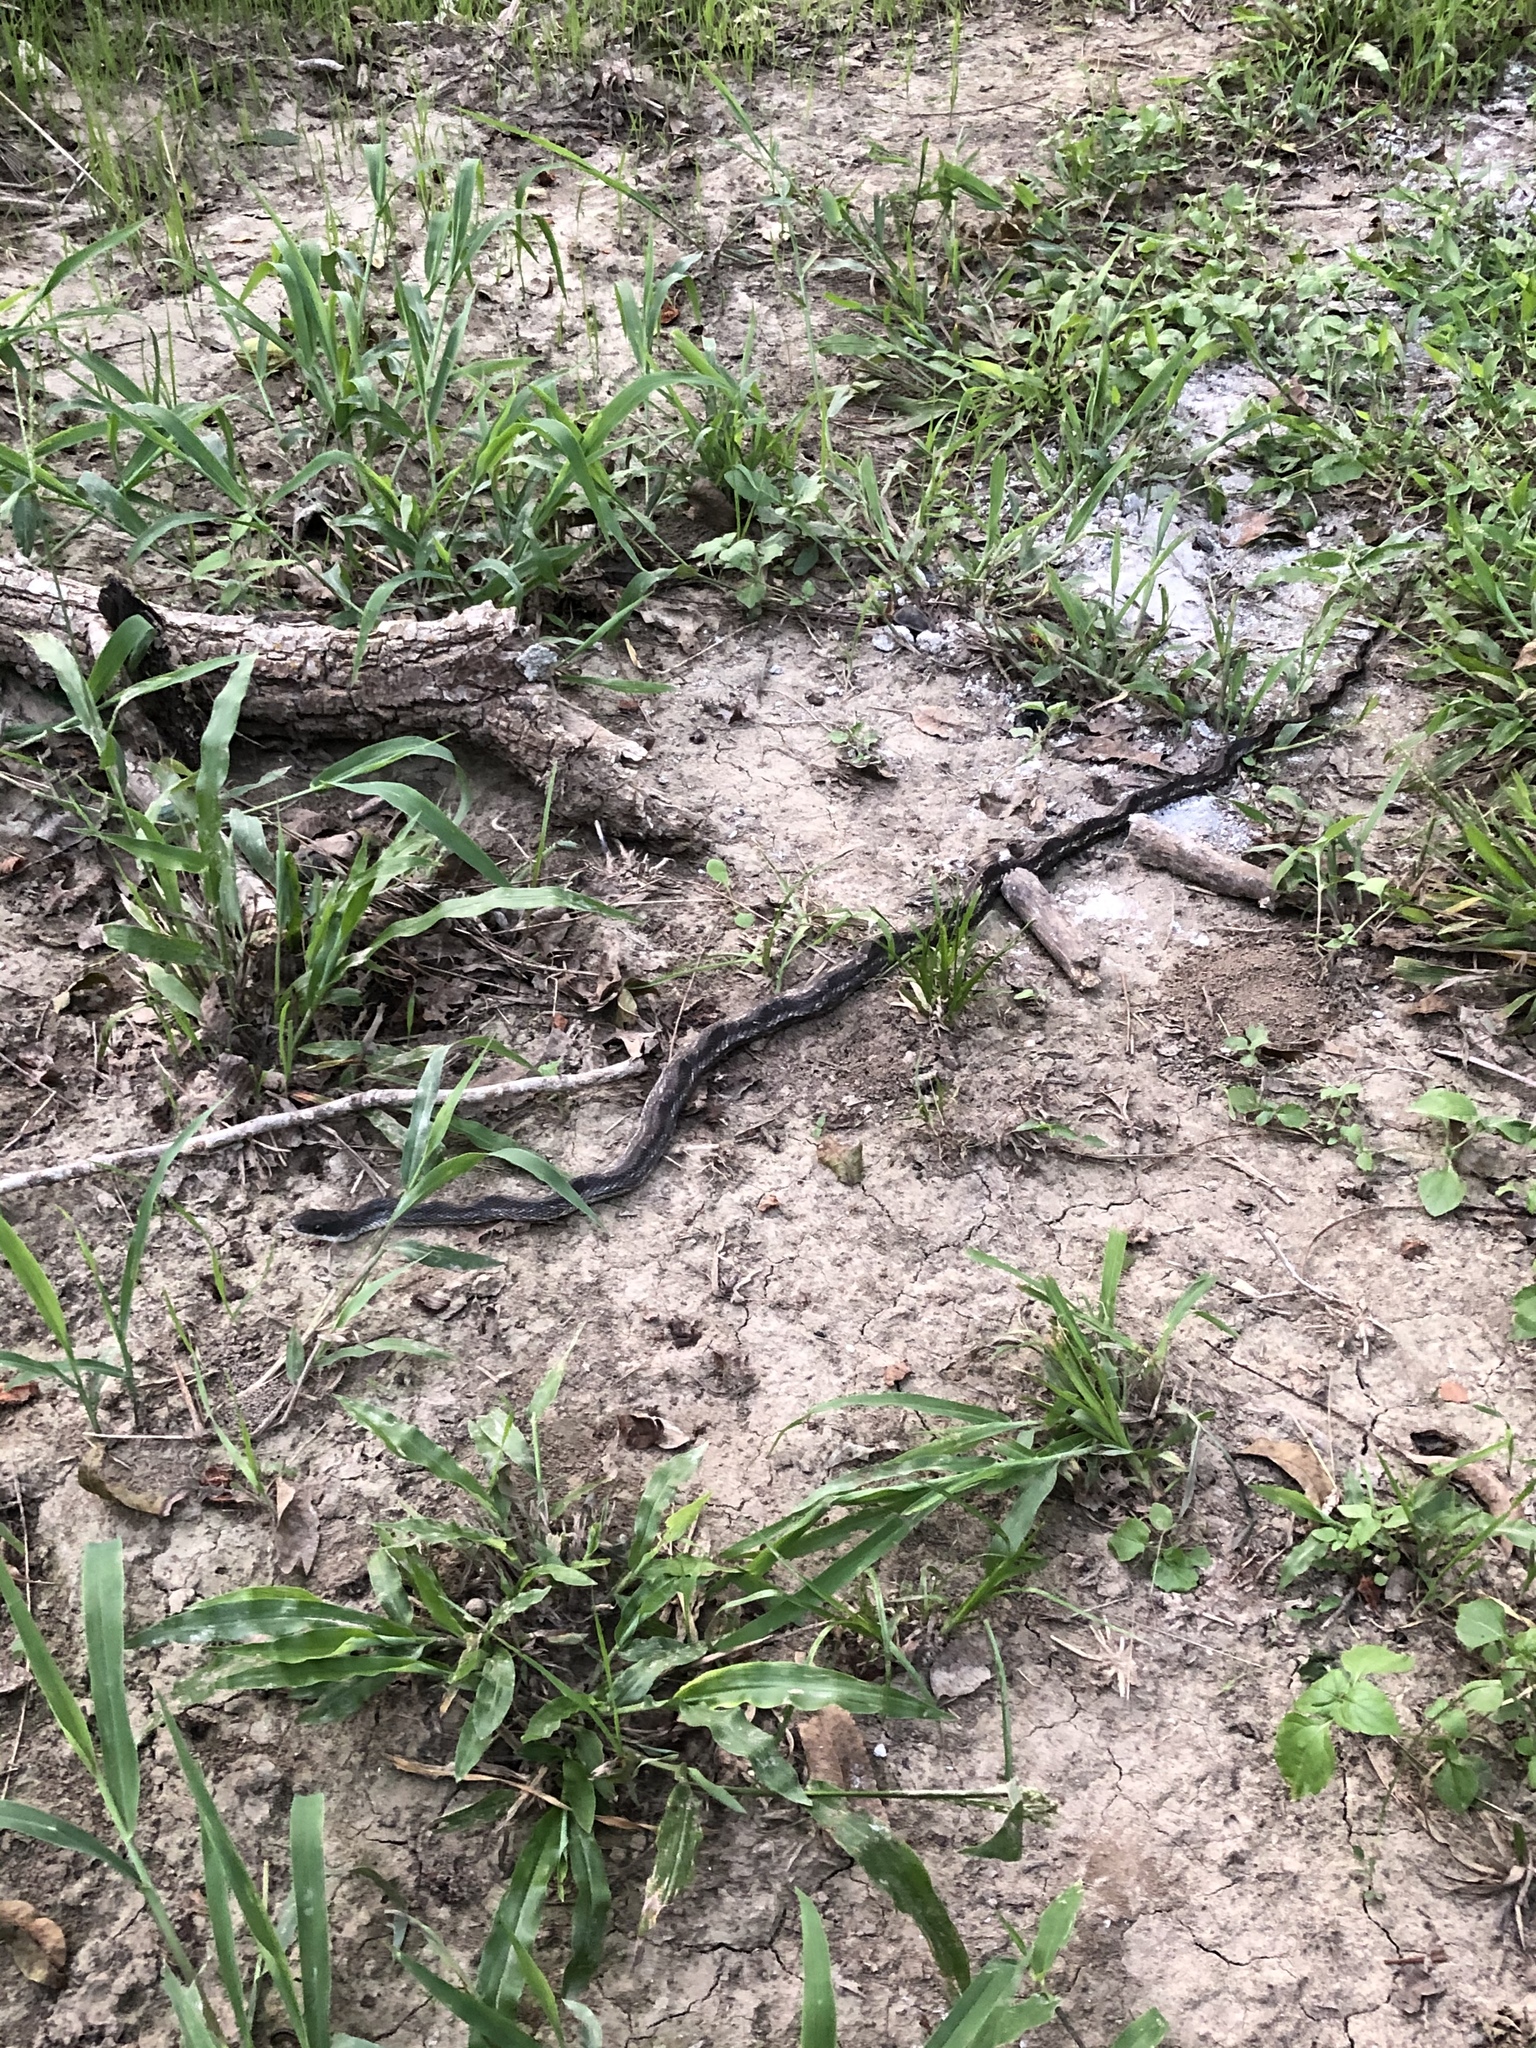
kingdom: Animalia
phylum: Chordata
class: Squamata
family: Colubridae
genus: Pantherophis
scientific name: Pantherophis obsoletus
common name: Black rat snake
